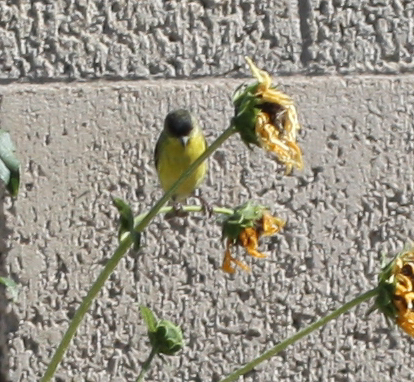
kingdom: Animalia
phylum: Chordata
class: Aves
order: Passeriformes
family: Fringillidae
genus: Spinus
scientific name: Spinus psaltria
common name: Lesser goldfinch
